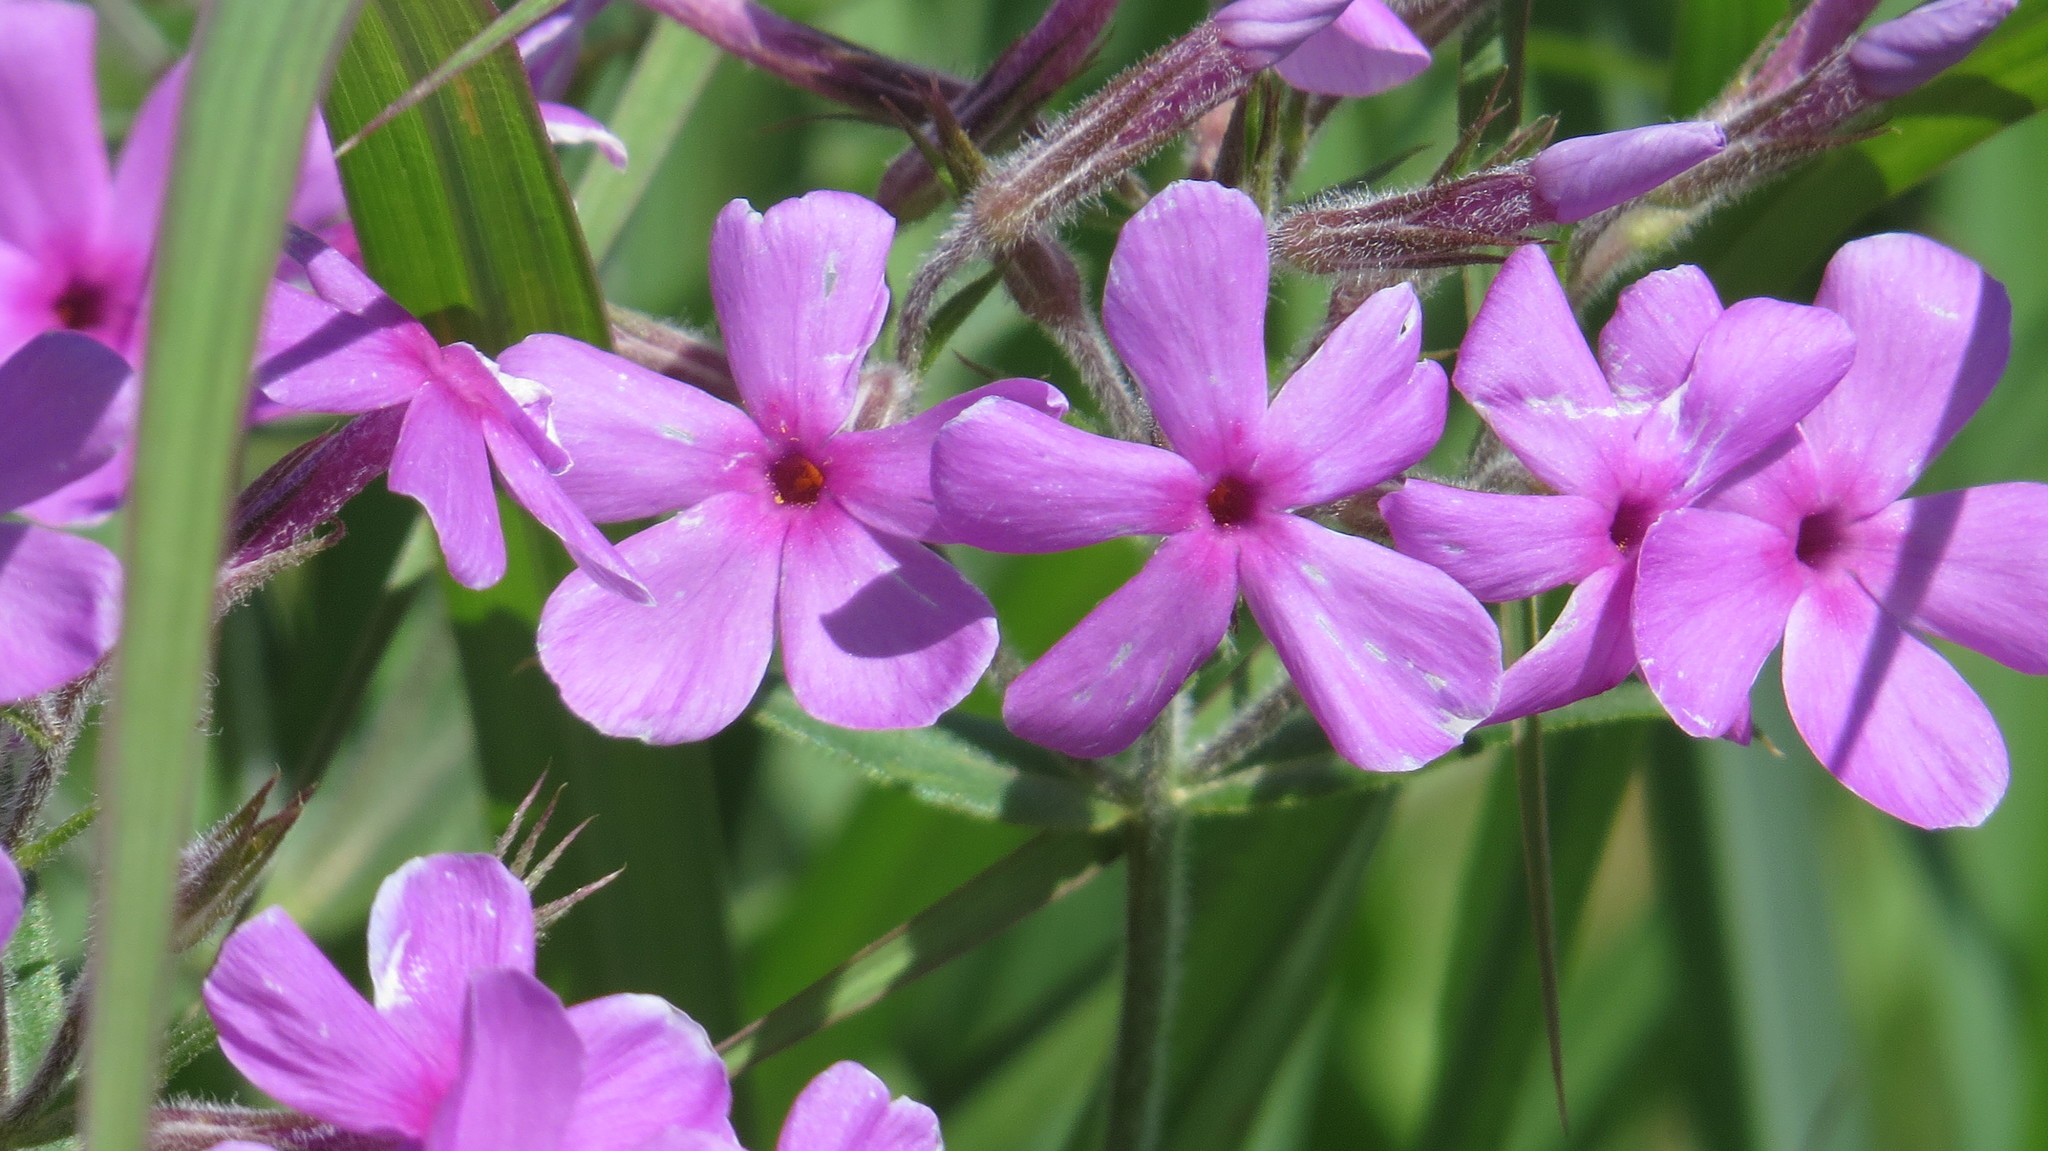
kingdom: Plantae
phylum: Tracheophyta
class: Magnoliopsida
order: Ericales
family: Polemoniaceae
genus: Phlox
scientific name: Phlox pilosa
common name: Prairie phlox
